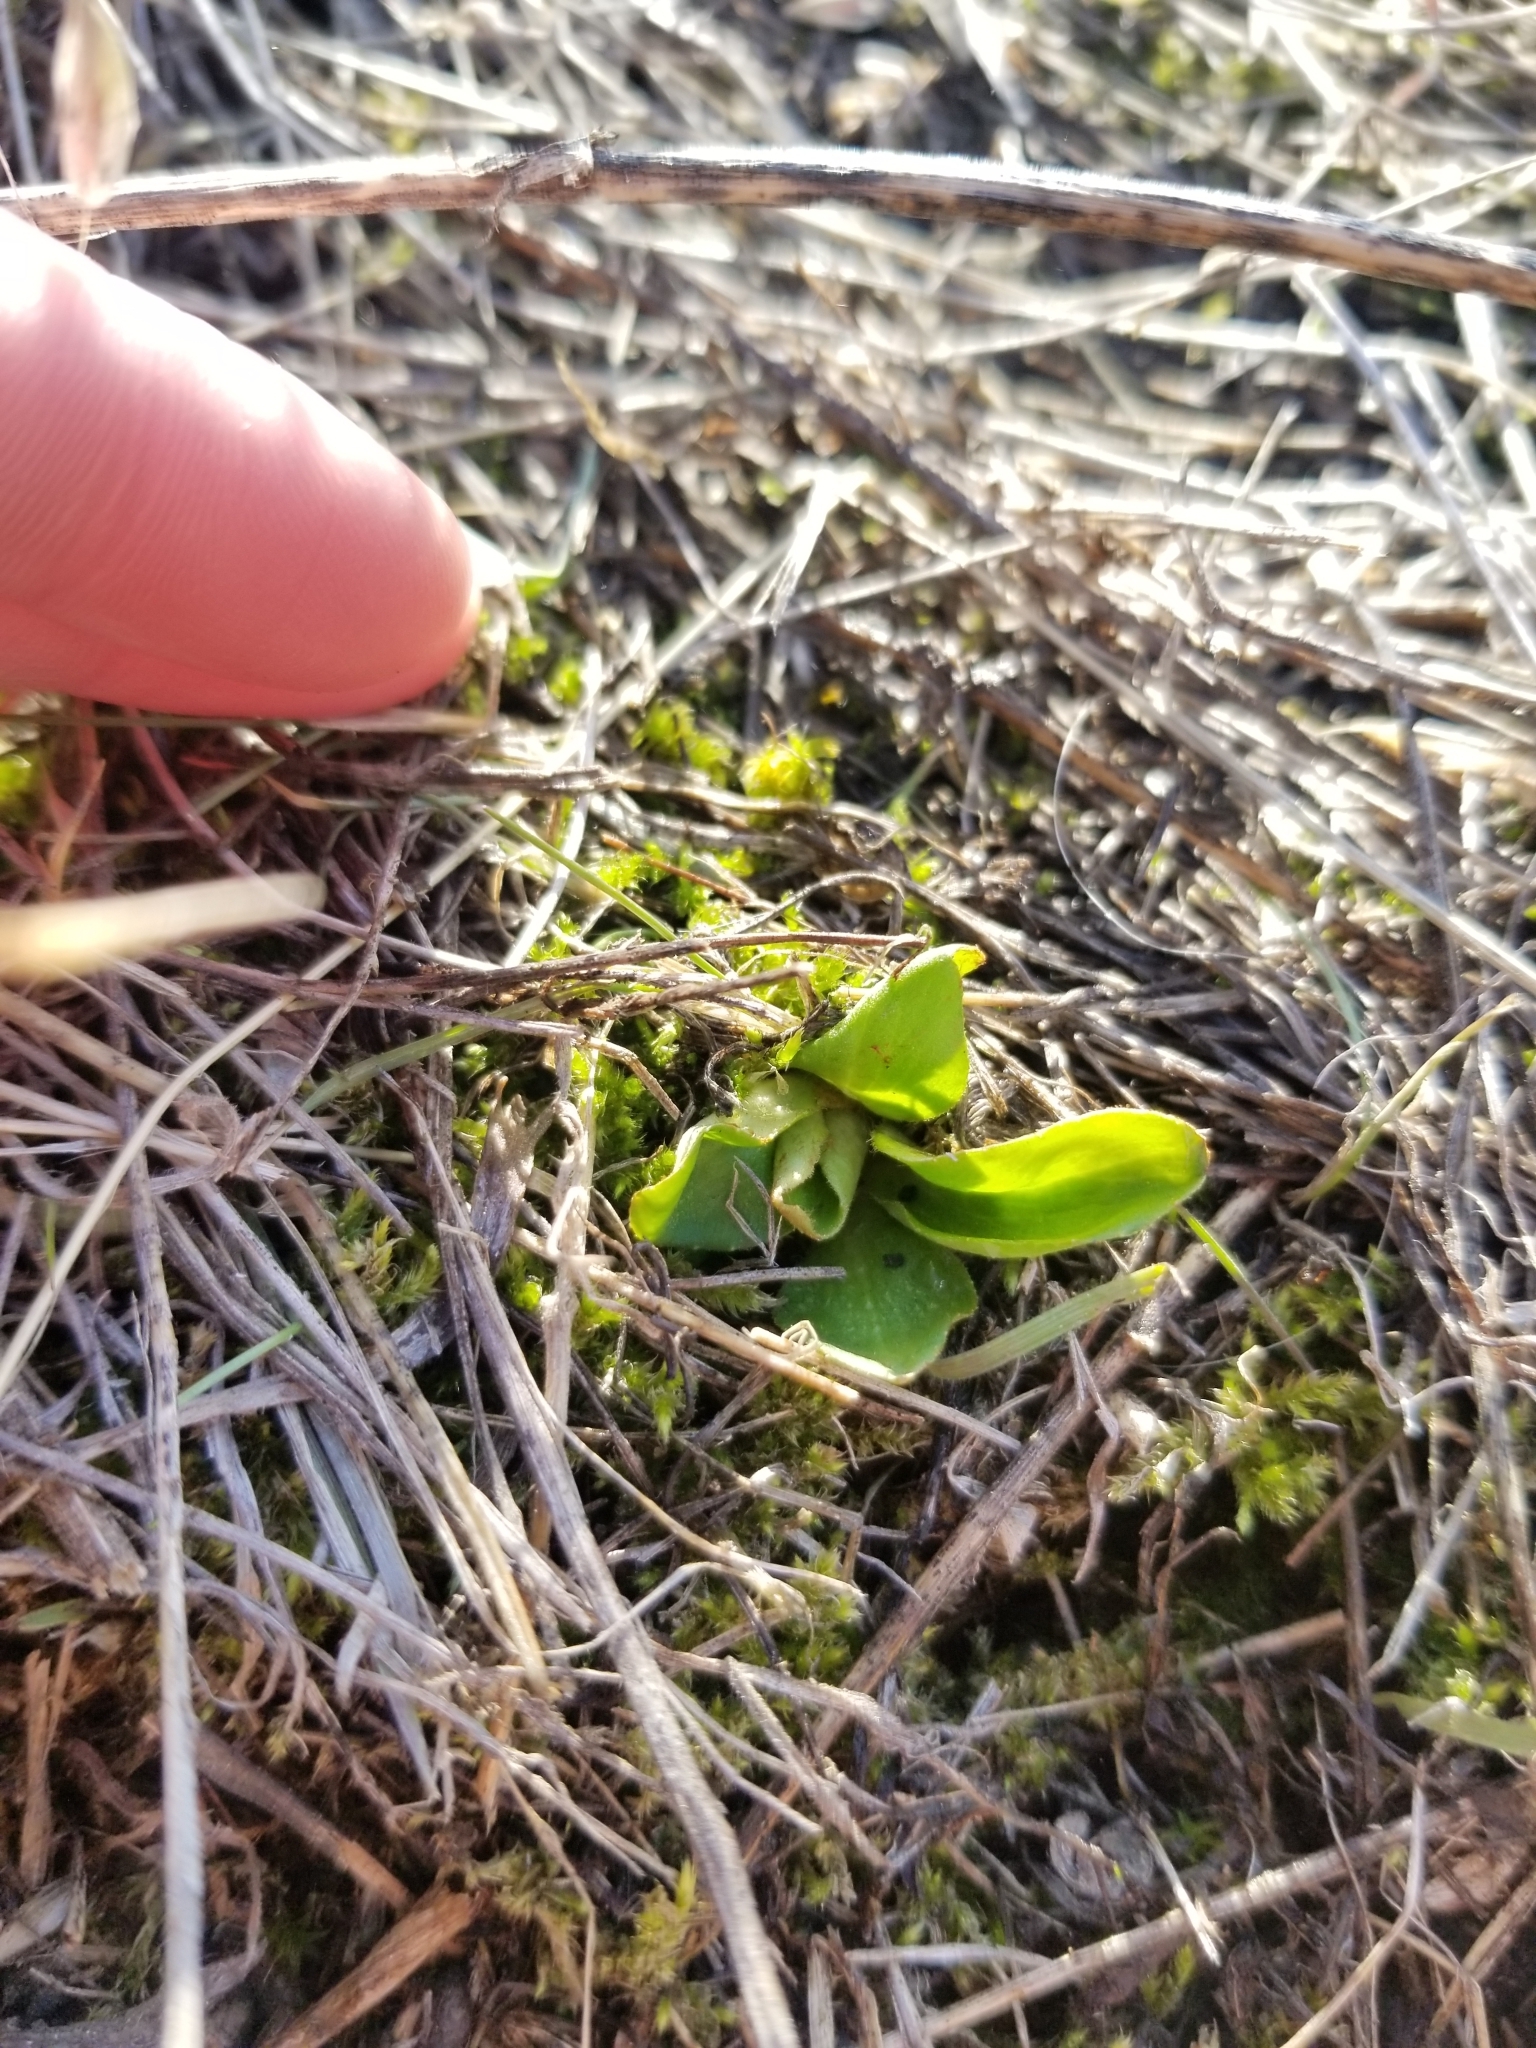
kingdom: Plantae
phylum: Tracheophyta
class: Magnoliopsida
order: Ranunculales
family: Ranunculaceae
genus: Ranunculus
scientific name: Ranunculus glaberrimus
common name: Sagebrush buttercup
